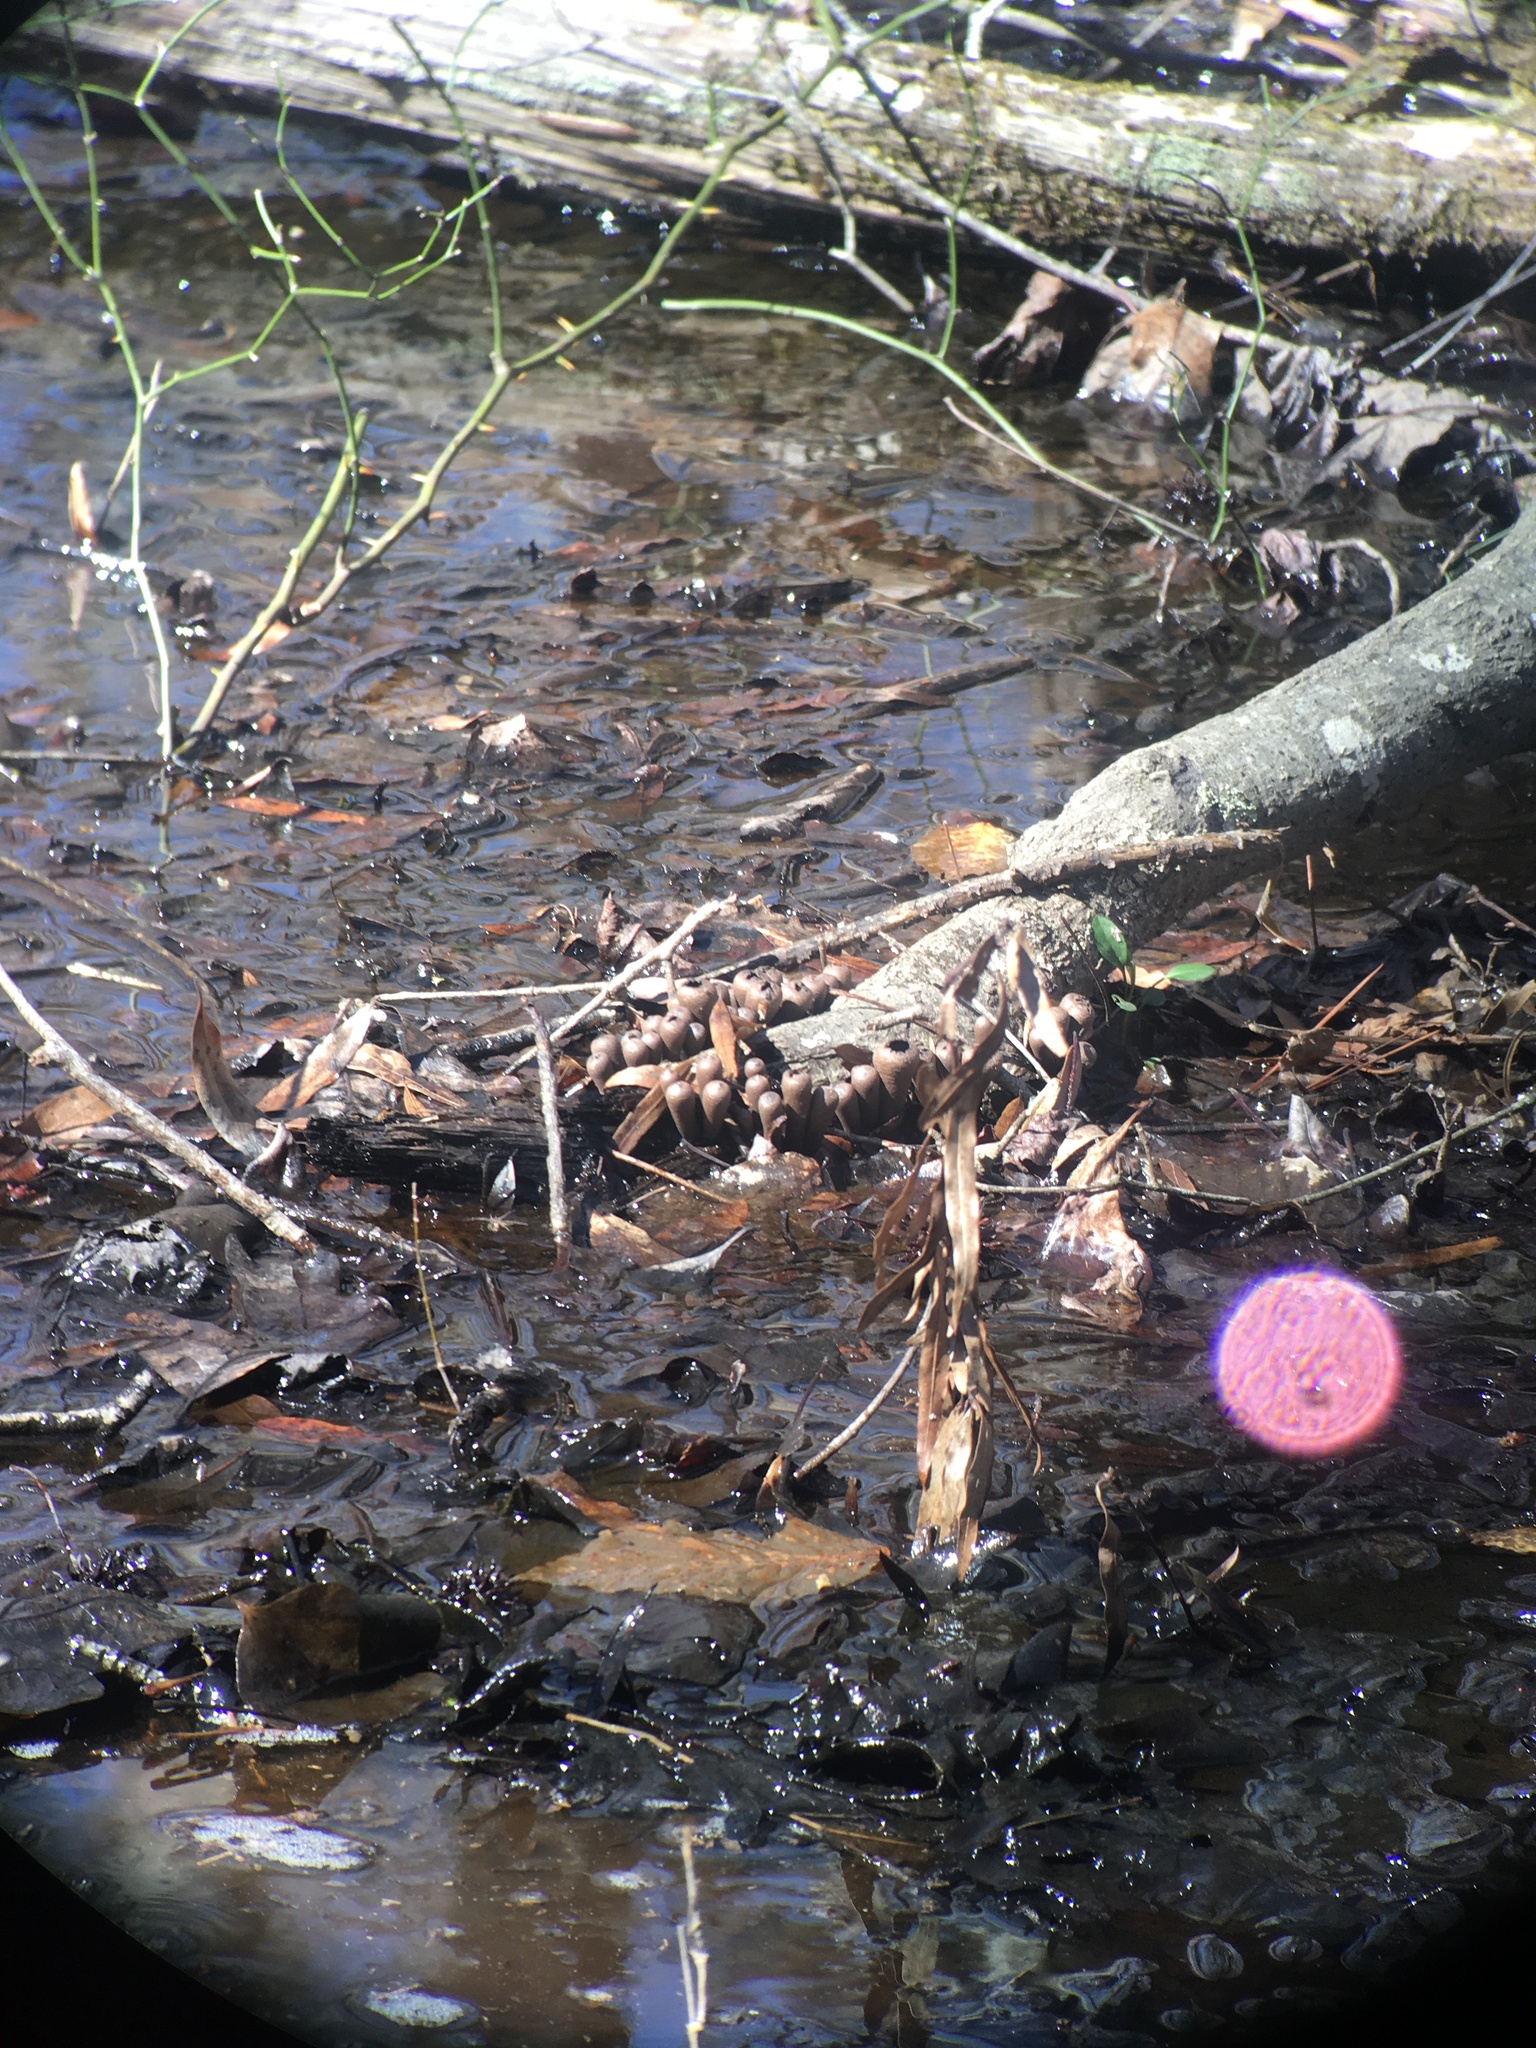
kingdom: Fungi
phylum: Ascomycota
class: Pezizomycetes
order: Pezizales
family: Sarcosomataceae
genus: Urnula
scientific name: Urnula craterium
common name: Devil's urn
